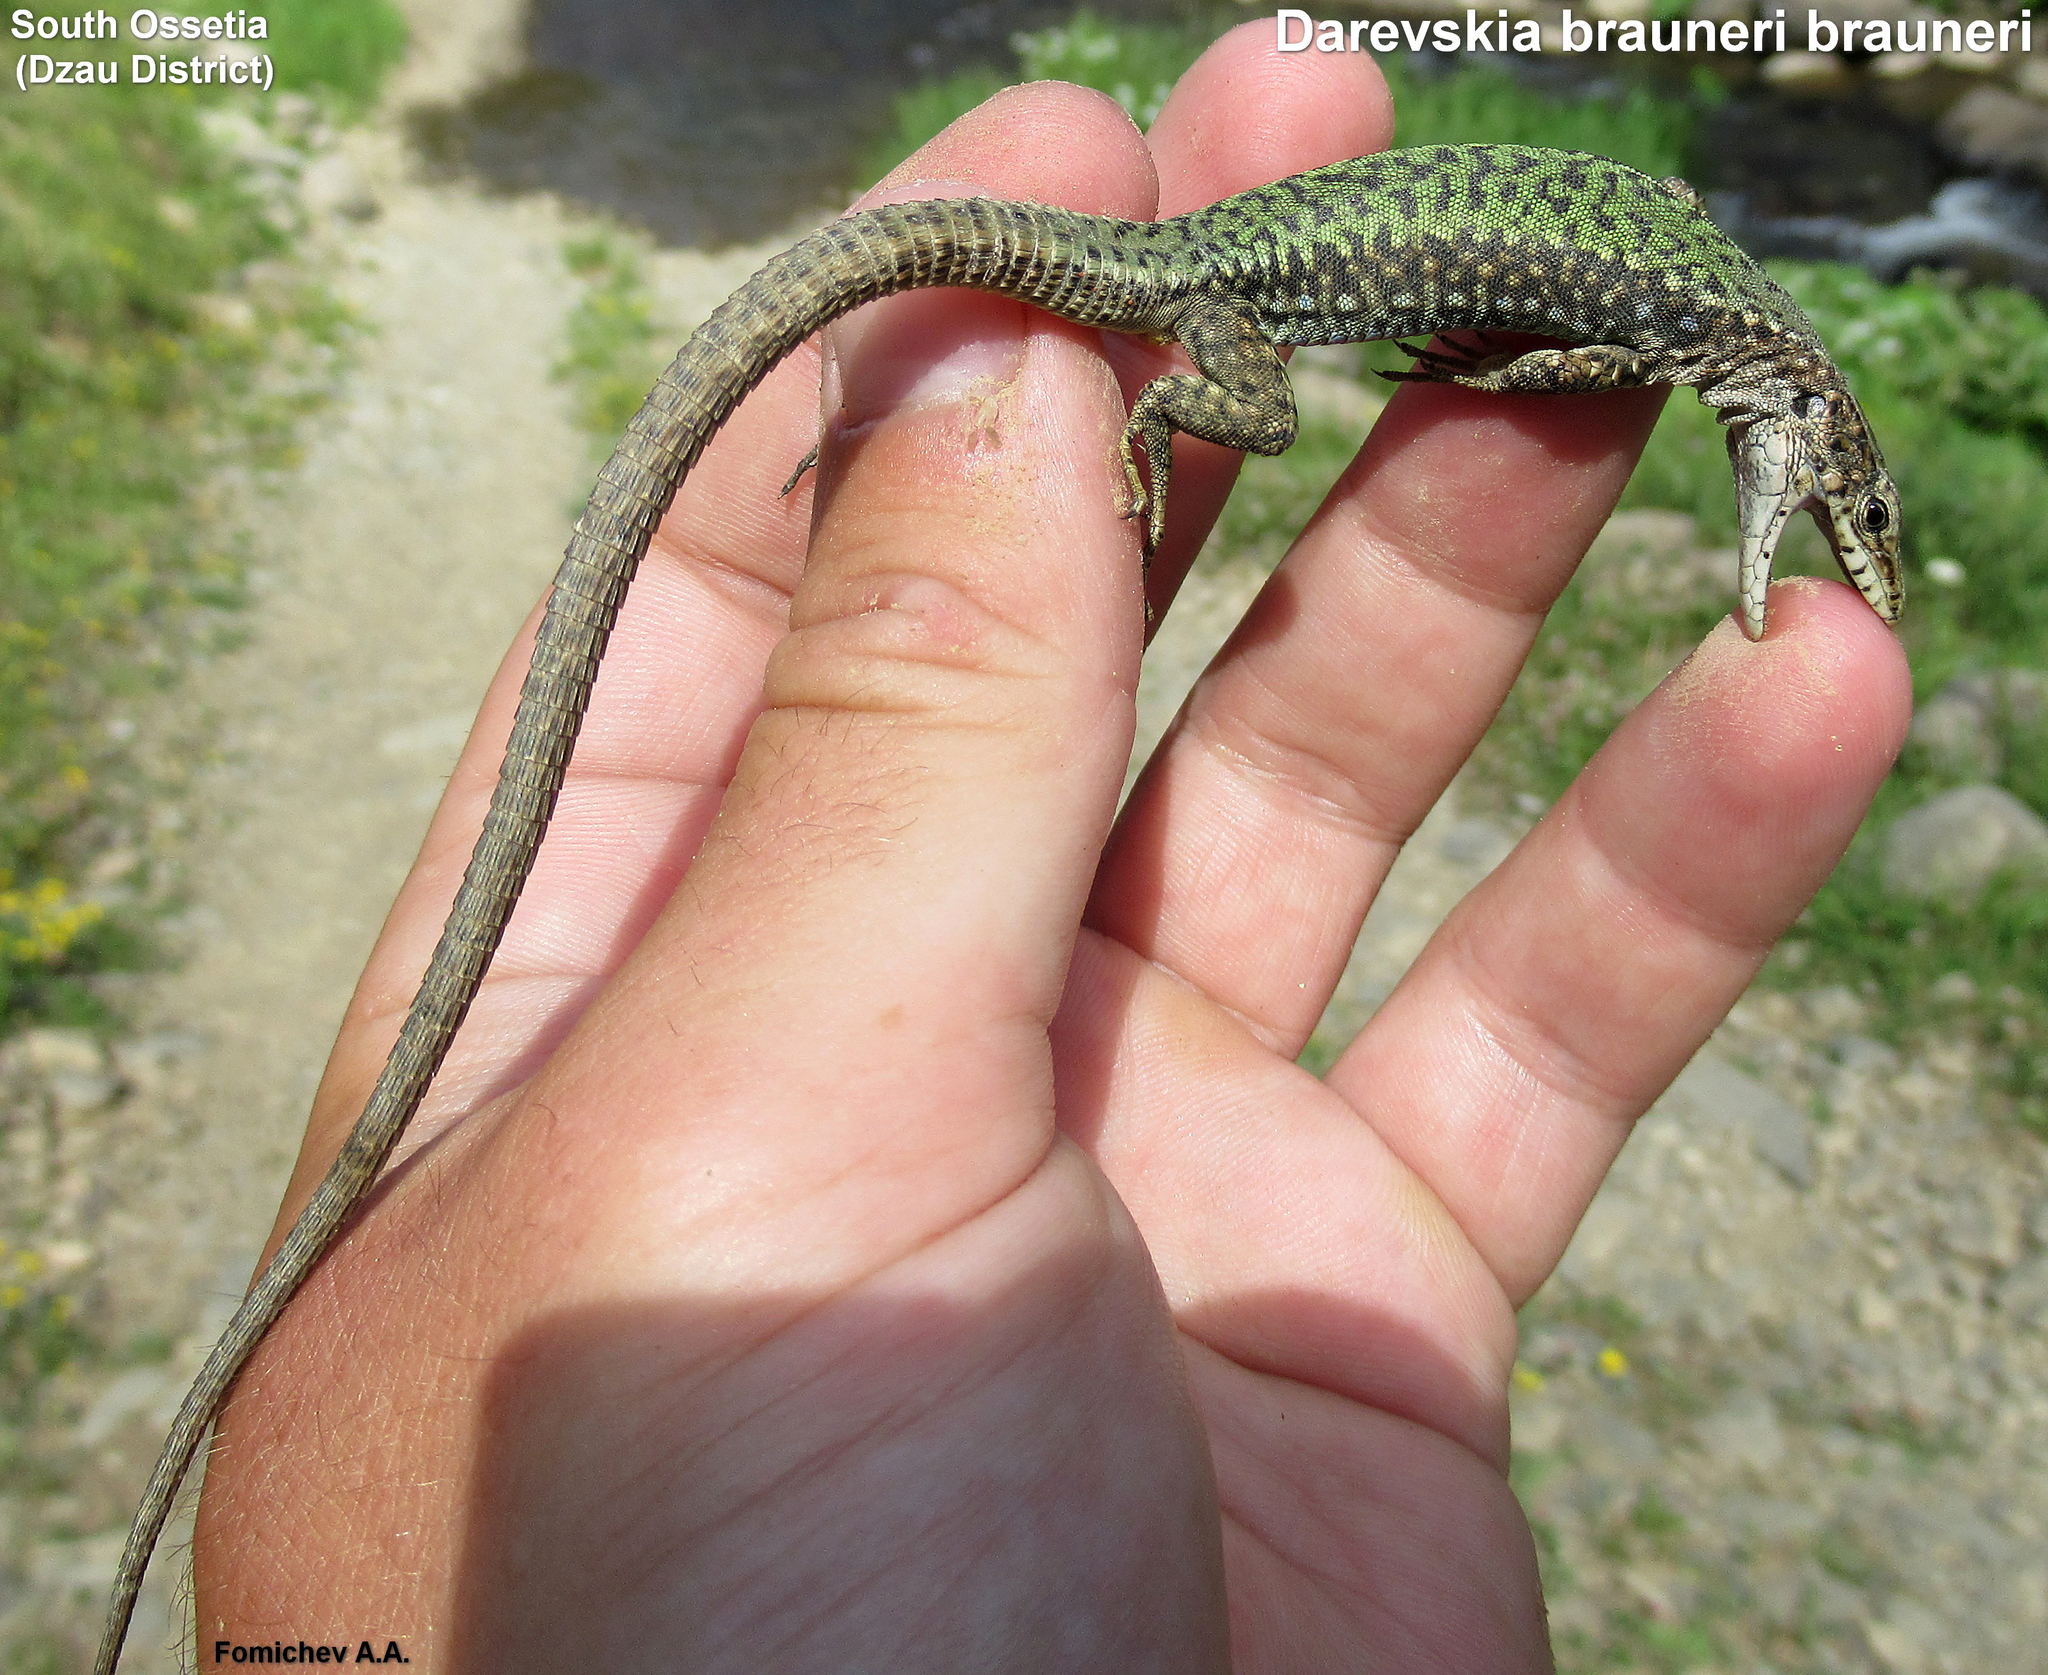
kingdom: Animalia
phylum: Chordata
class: Squamata
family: Lacertidae
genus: Darevskia
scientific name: Darevskia brauneri
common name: Brauner's rock lizard
